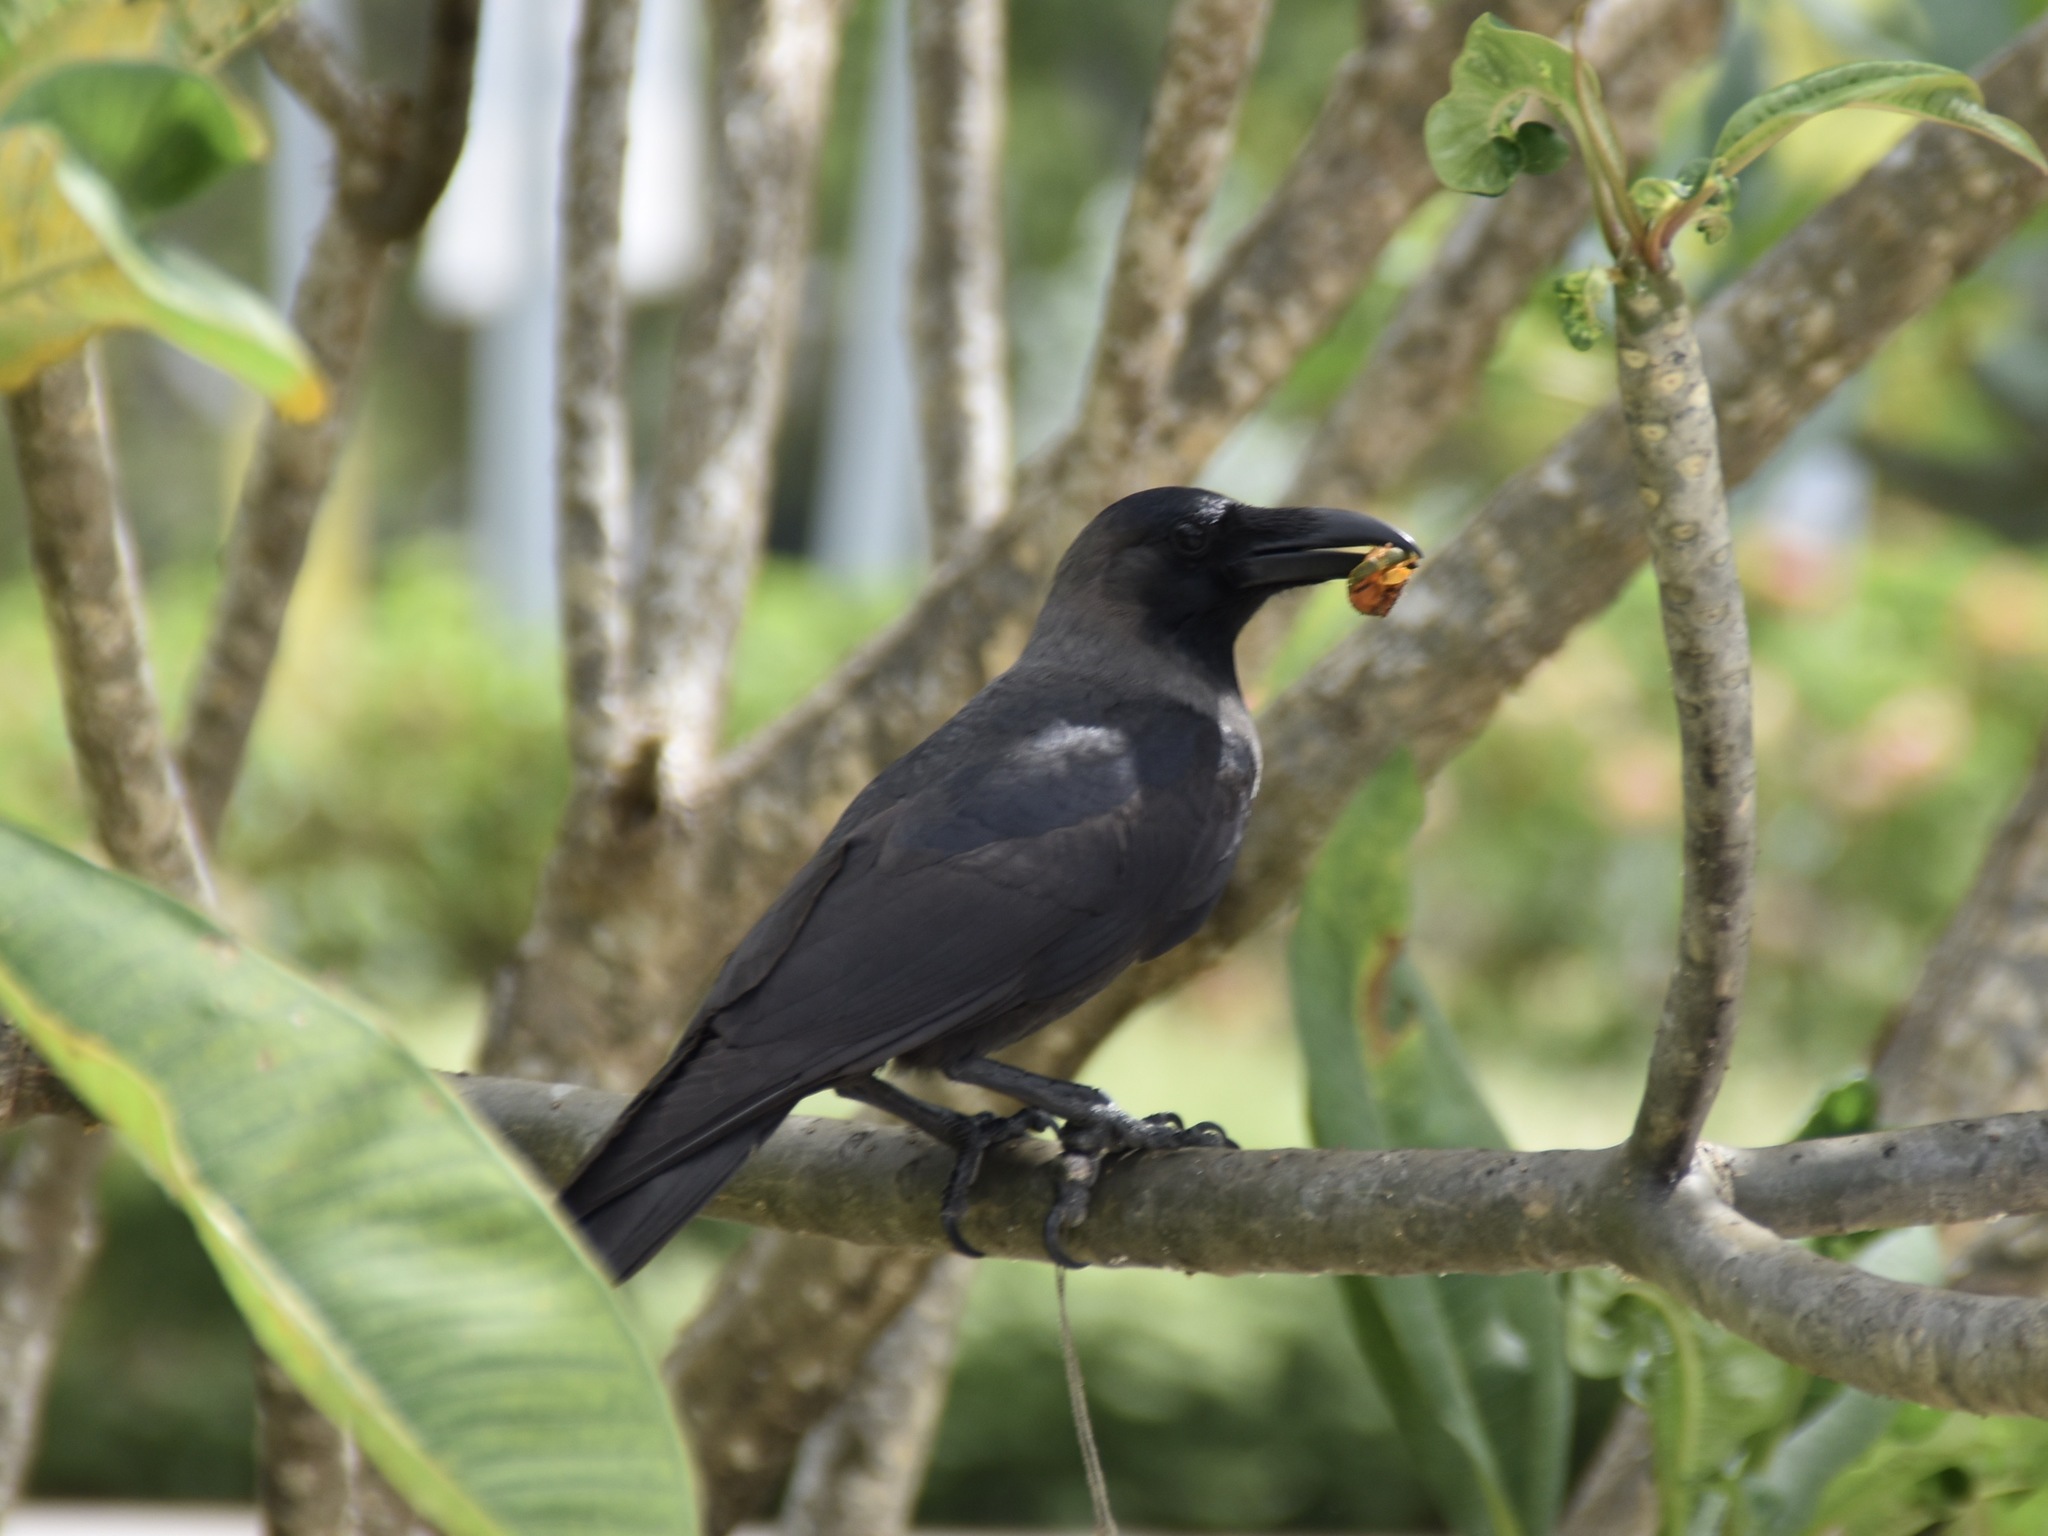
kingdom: Animalia
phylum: Chordata
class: Aves
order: Passeriformes
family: Corvidae
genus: Corvus
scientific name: Corvus splendens
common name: House crow
